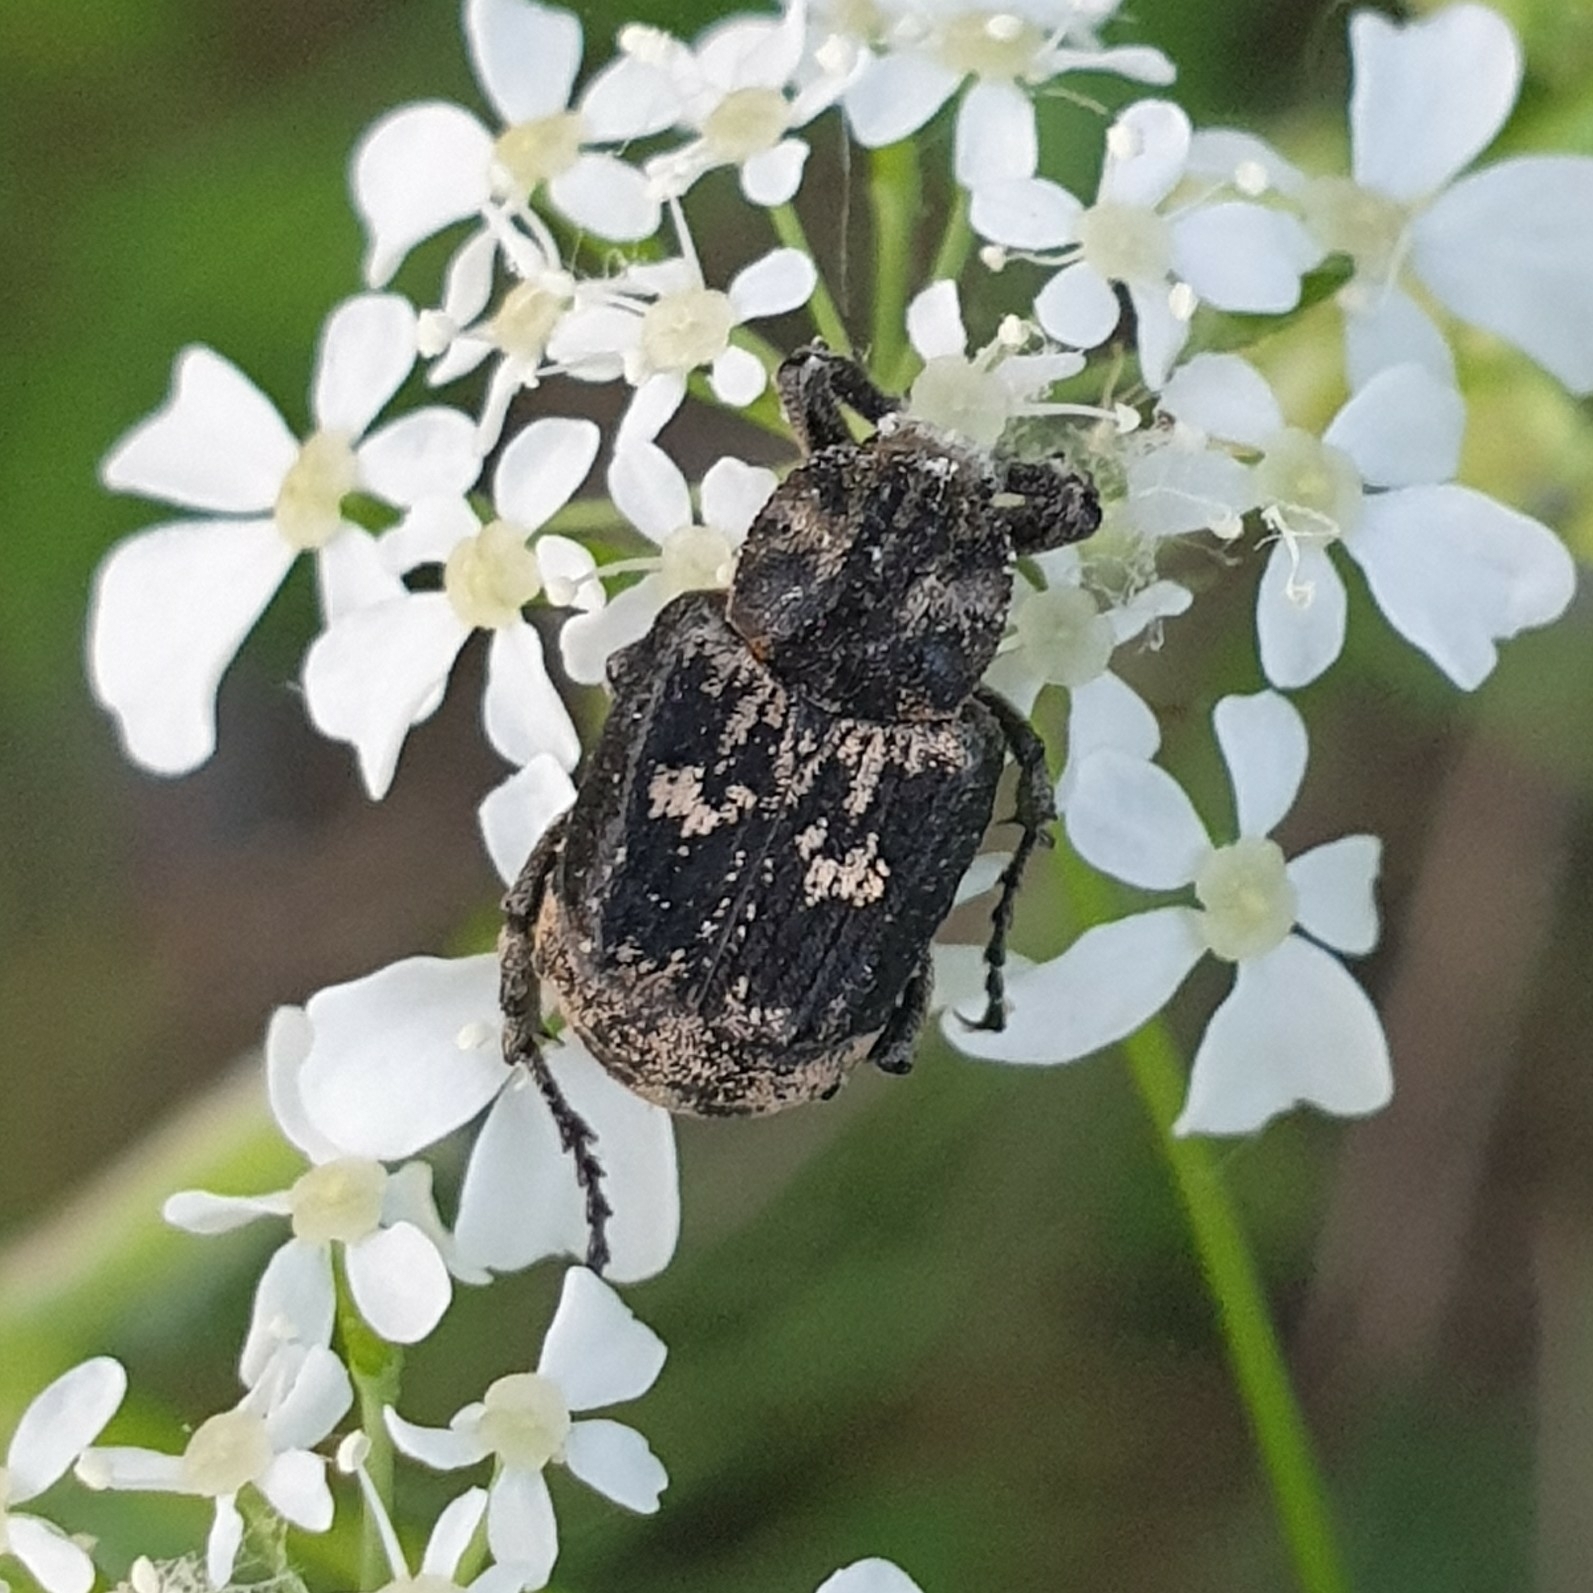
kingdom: Animalia
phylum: Arthropoda
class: Insecta
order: Coleoptera
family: Scarabaeidae
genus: Valgus
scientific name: Valgus hemipterus
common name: Bug flower chafer
